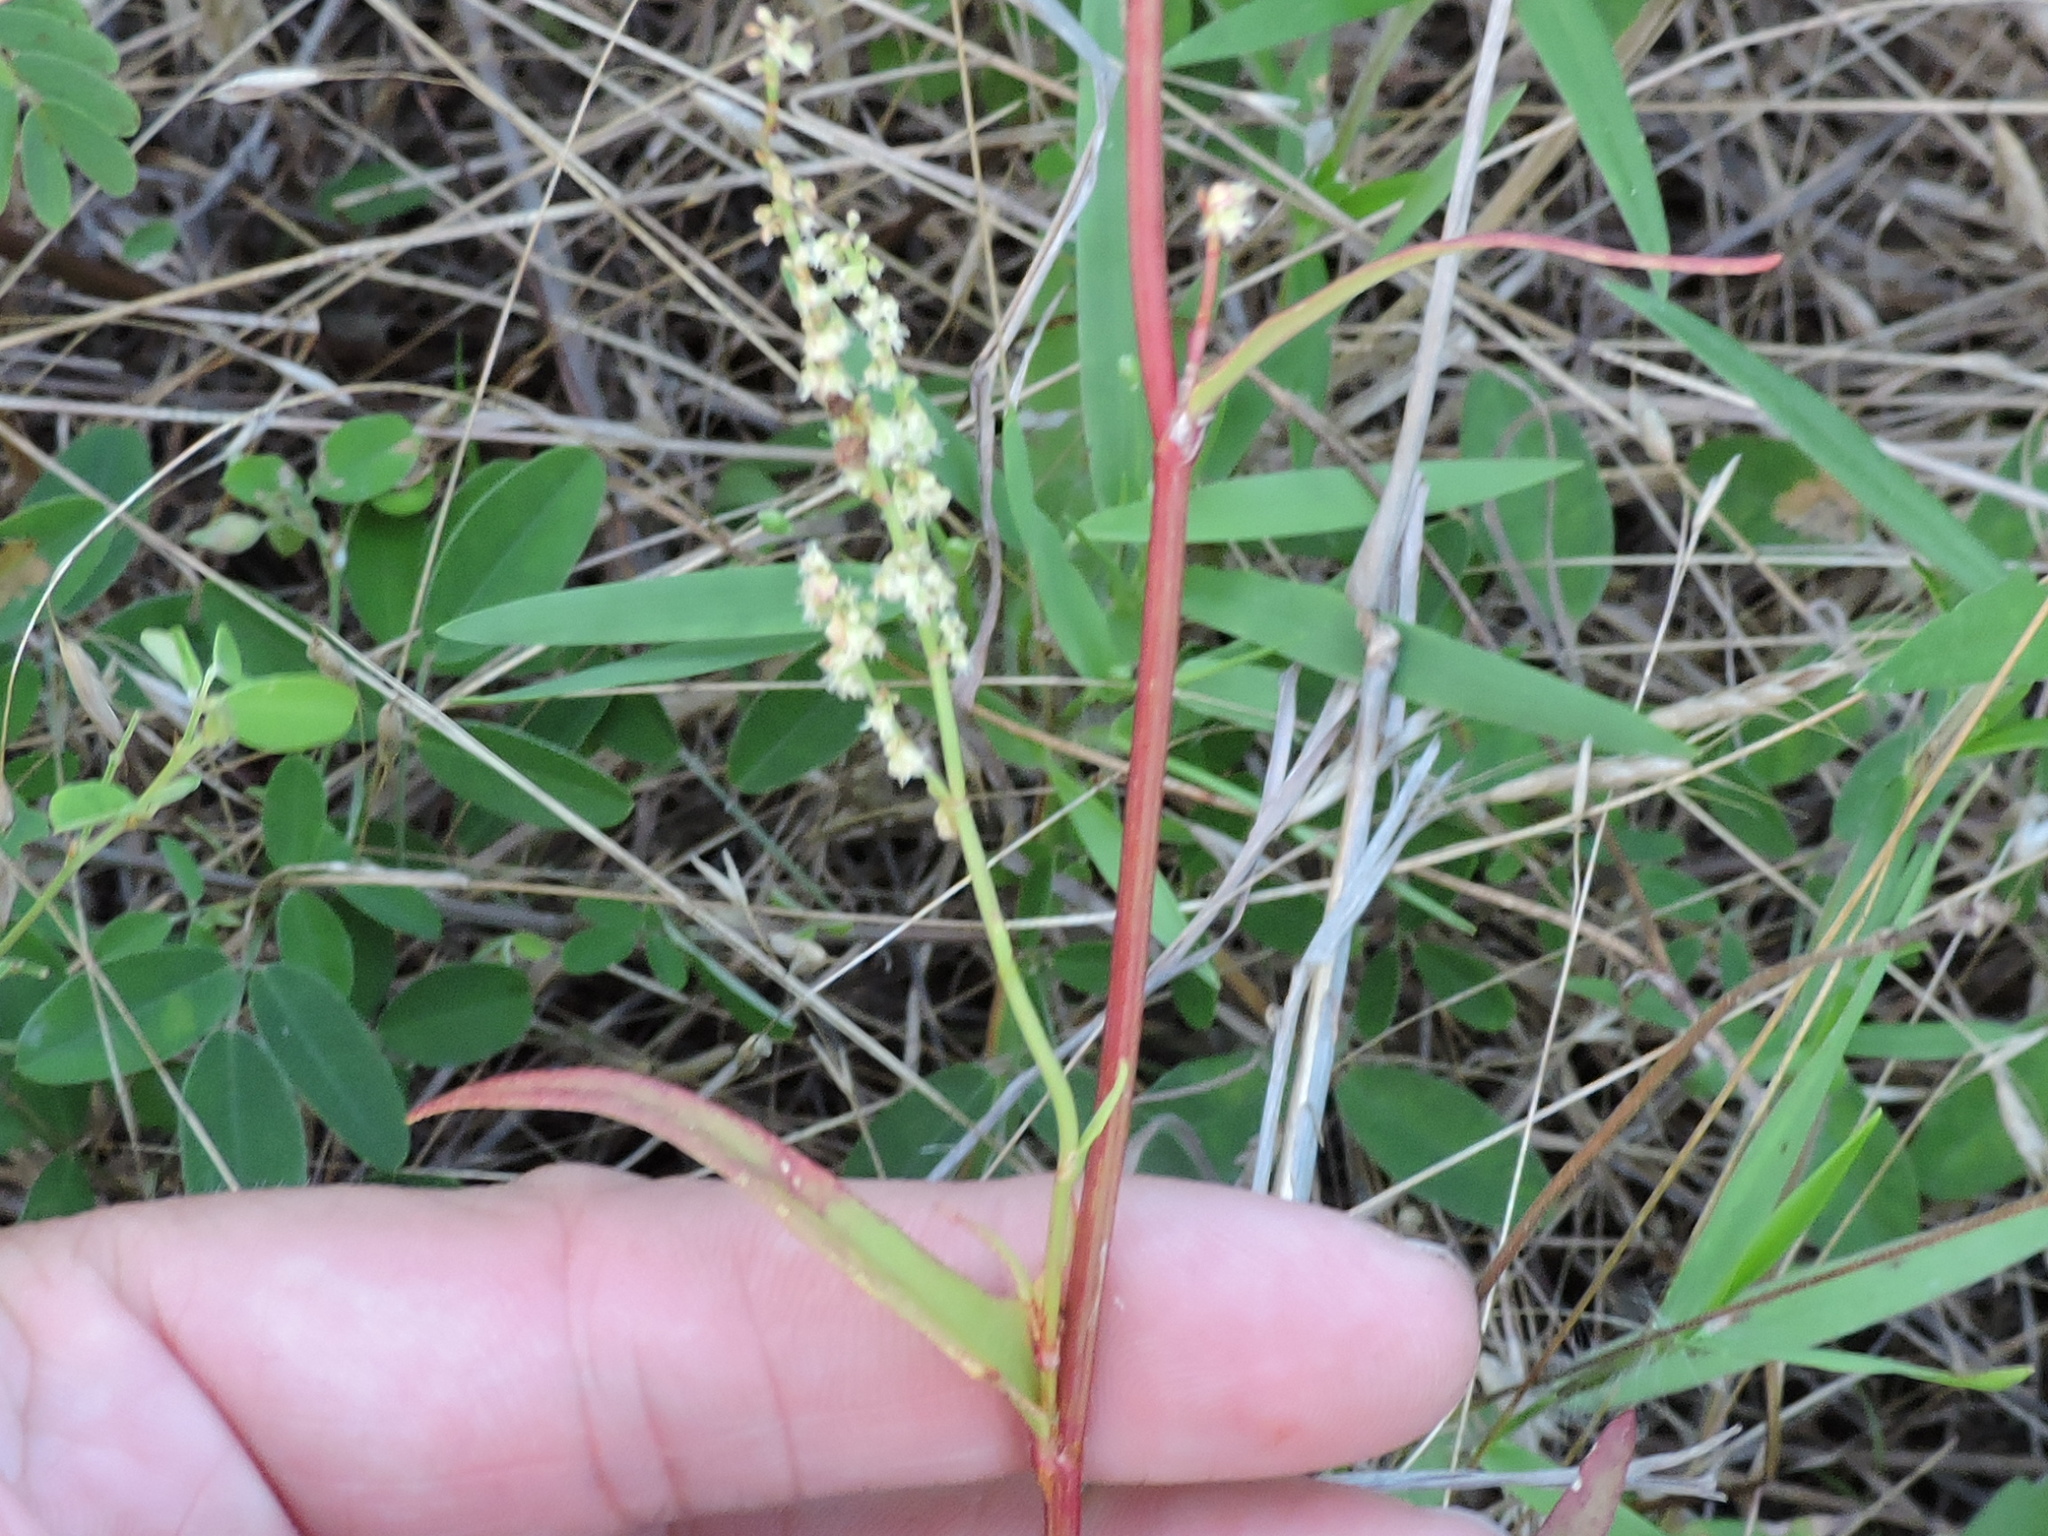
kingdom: Plantae
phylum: Tracheophyta
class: Magnoliopsida
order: Caryophyllales
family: Polygonaceae
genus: Rumex
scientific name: Rumex hastatulus
